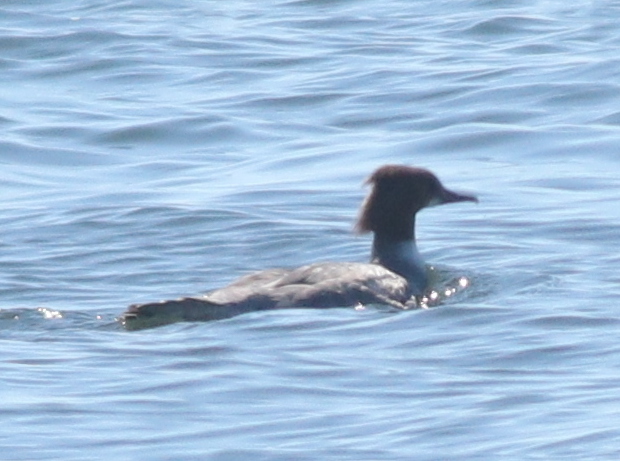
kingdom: Animalia
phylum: Chordata
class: Aves
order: Anseriformes
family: Anatidae
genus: Mergus
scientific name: Mergus merganser
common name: Common merganser
